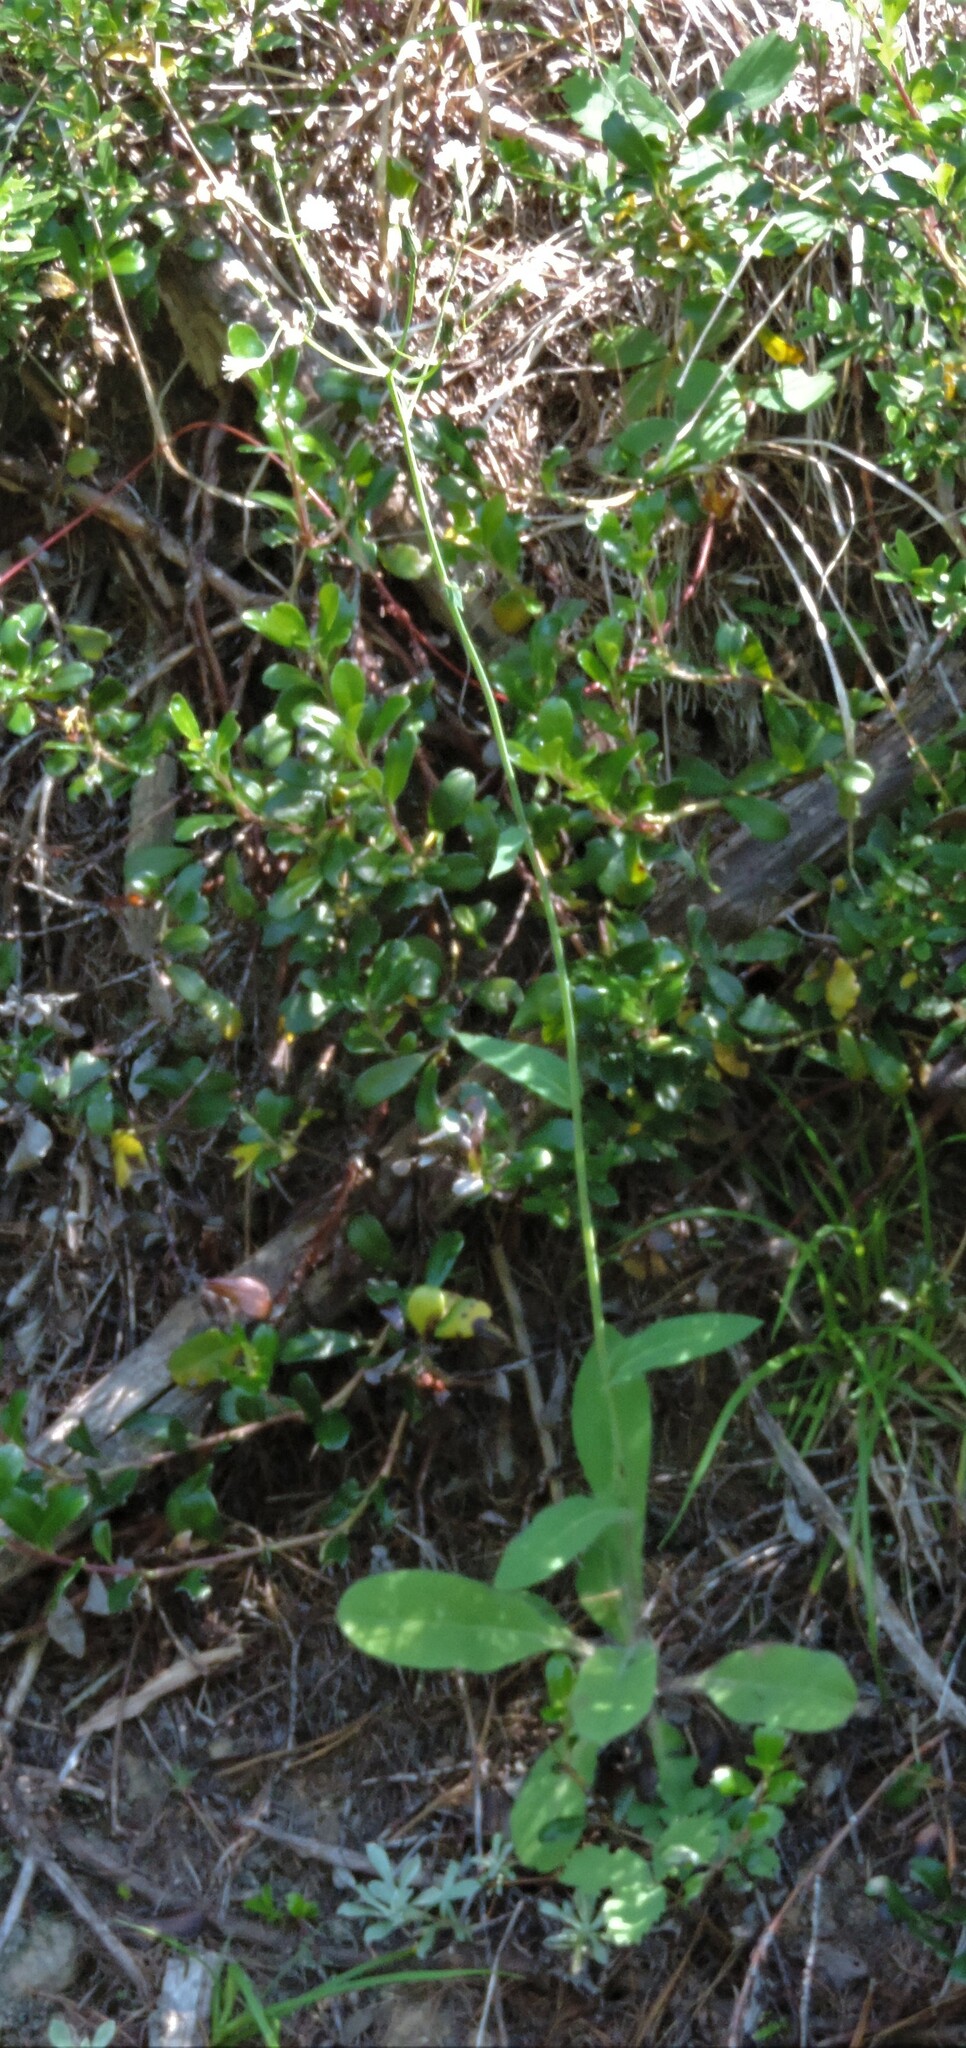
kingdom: Plantae
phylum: Tracheophyta
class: Magnoliopsida
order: Asterales
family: Asteraceae
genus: Hieracium
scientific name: Hieracium albiflorum
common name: White hawkweed
